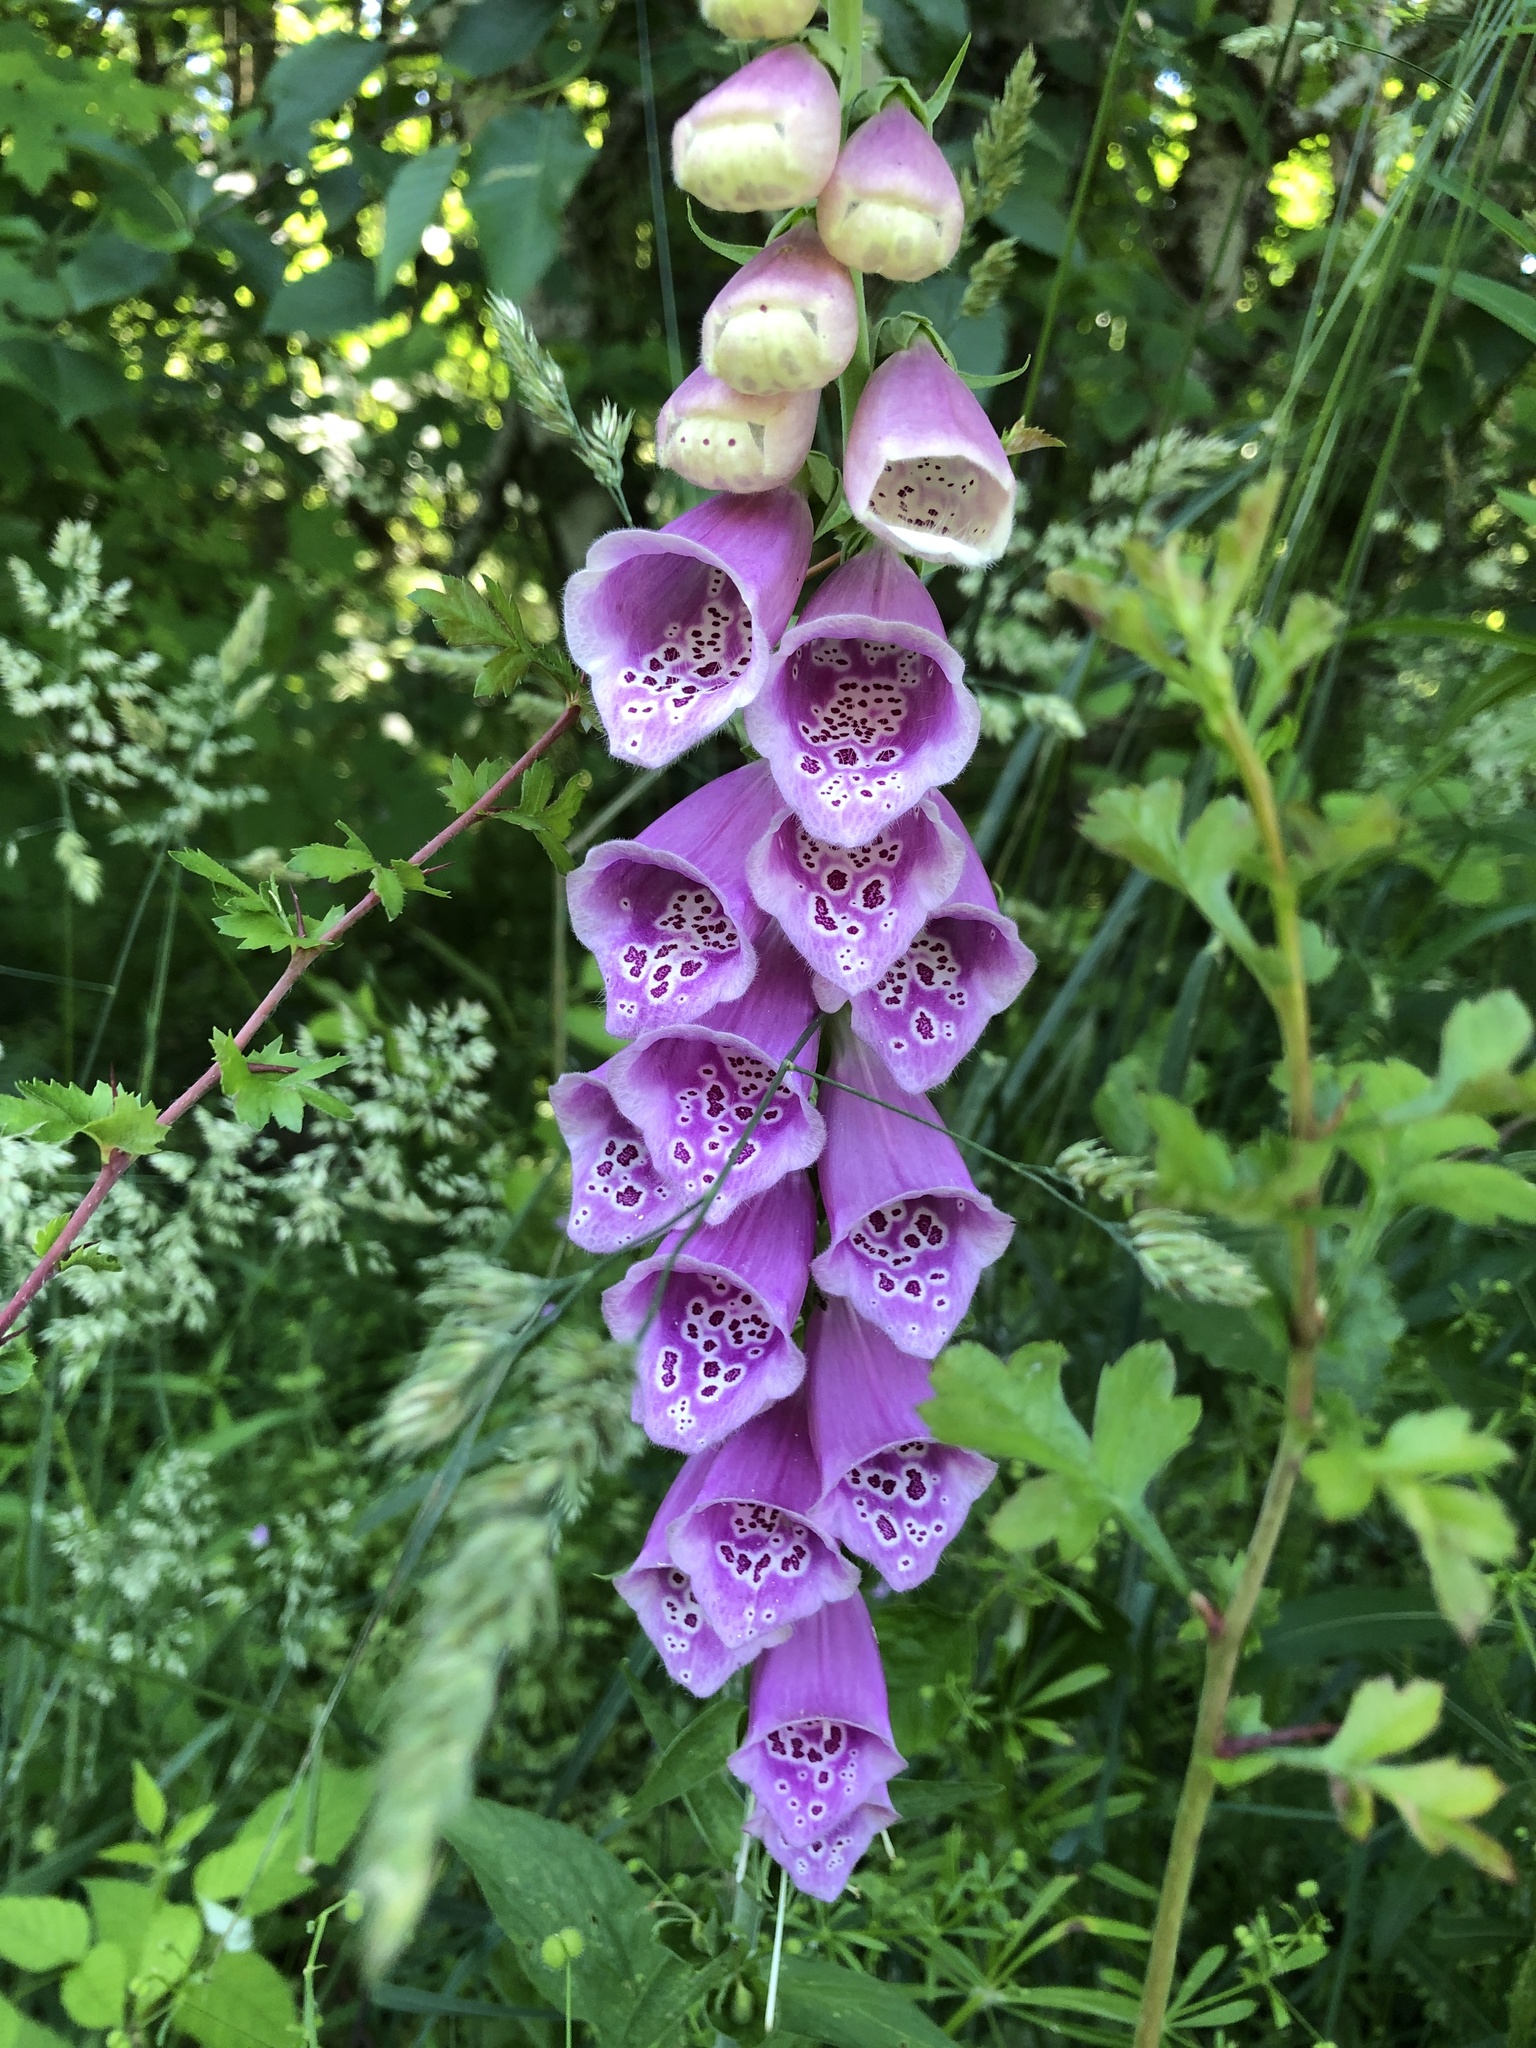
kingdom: Plantae
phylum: Tracheophyta
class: Magnoliopsida
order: Lamiales
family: Plantaginaceae
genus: Digitalis
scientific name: Digitalis purpurea
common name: Foxglove
